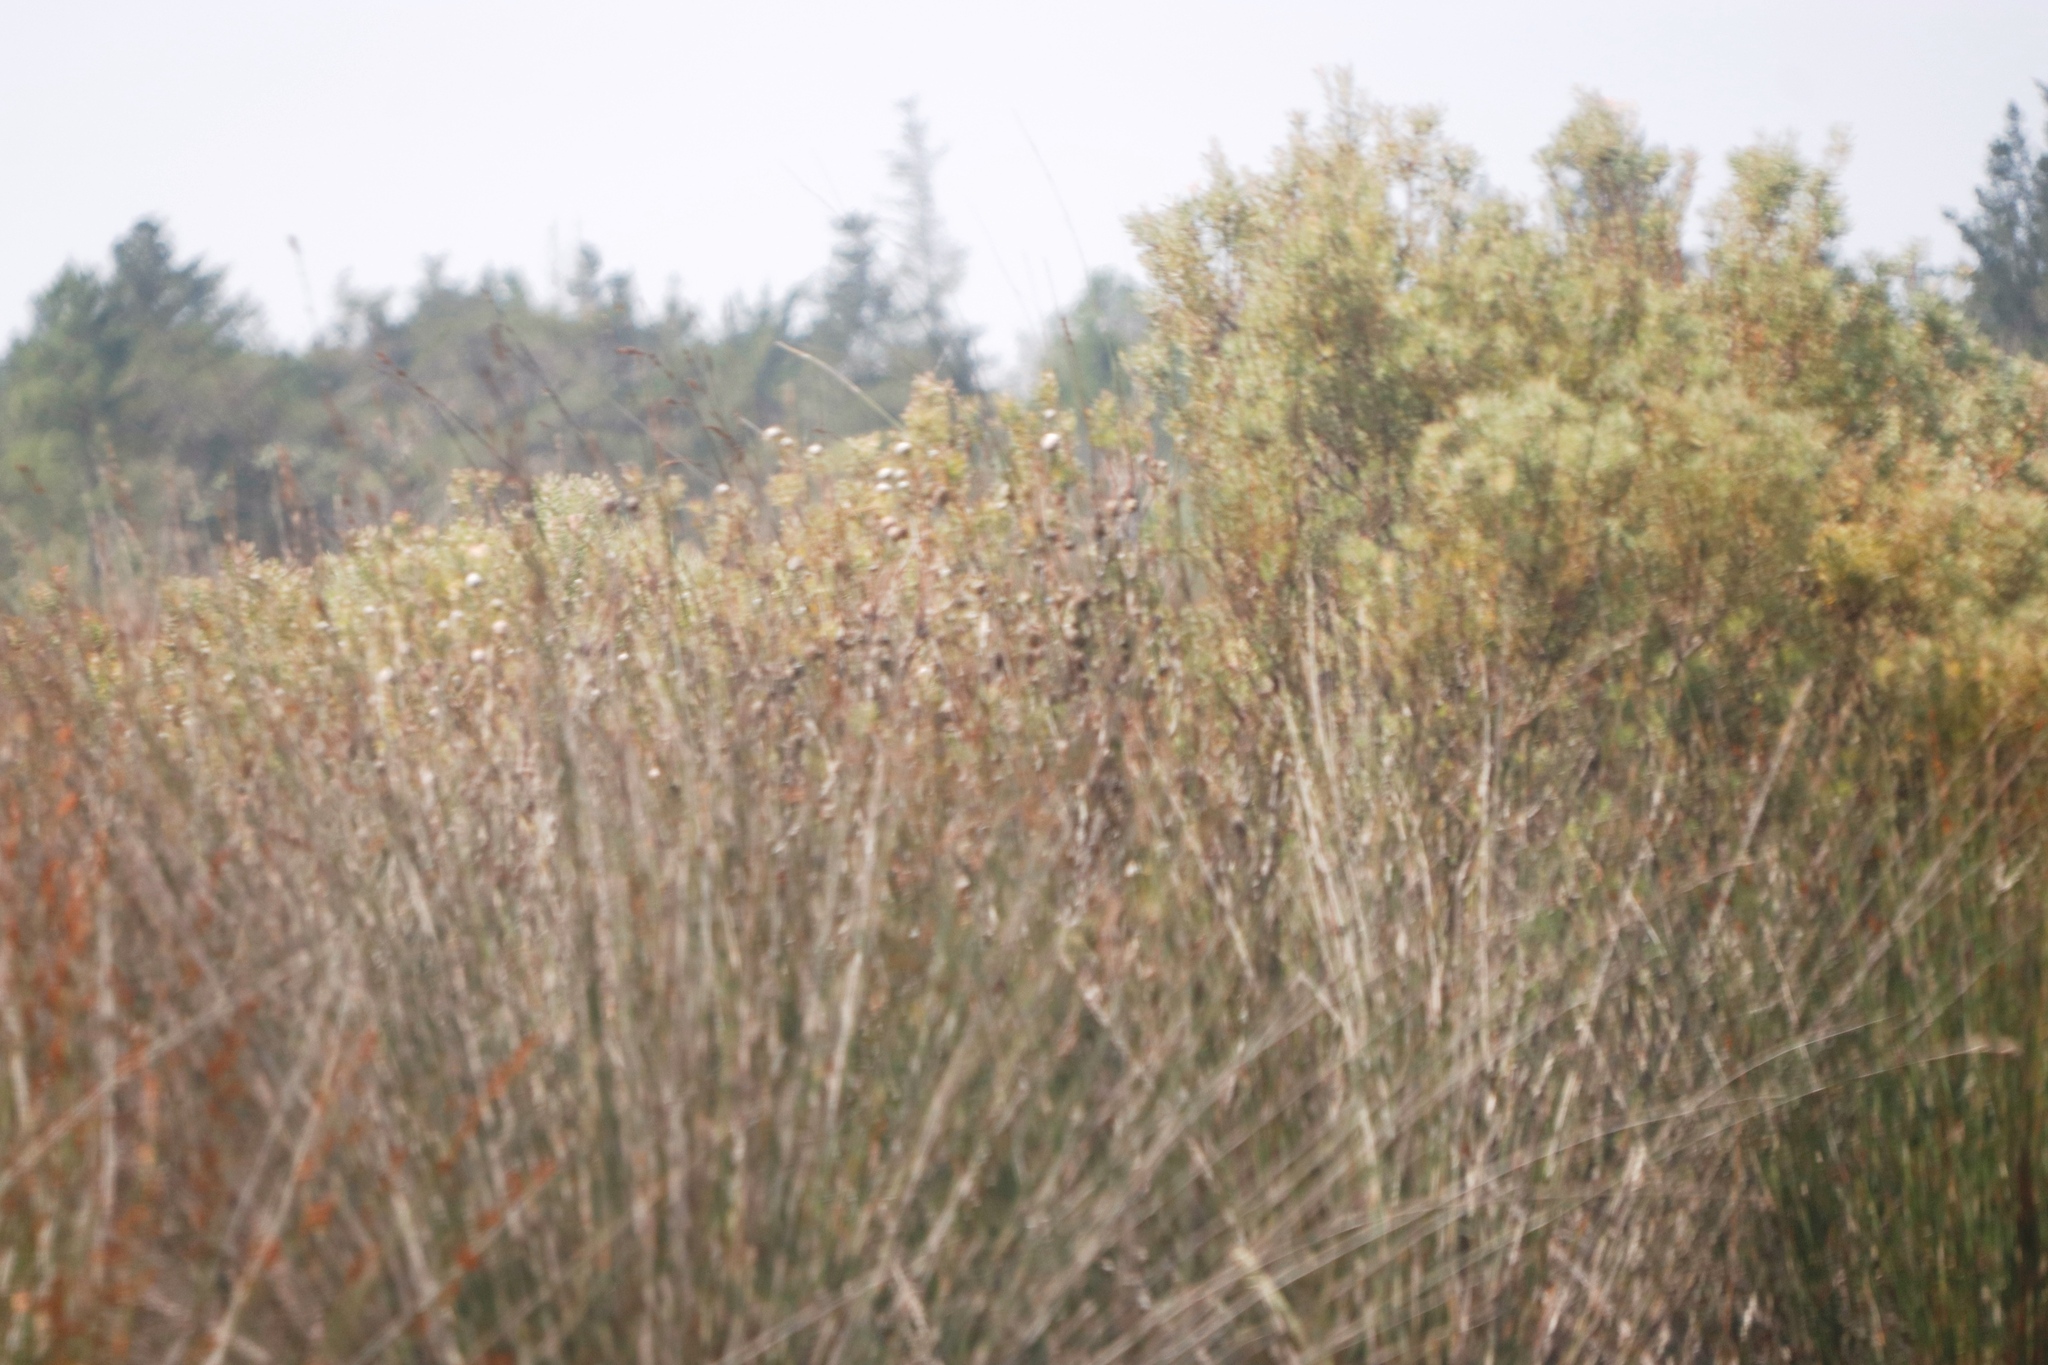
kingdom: Plantae
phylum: Tracheophyta
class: Magnoliopsida
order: Proteales
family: Proteaceae
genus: Leucadendron
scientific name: Leucadendron galpinii
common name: Hairless conebush
